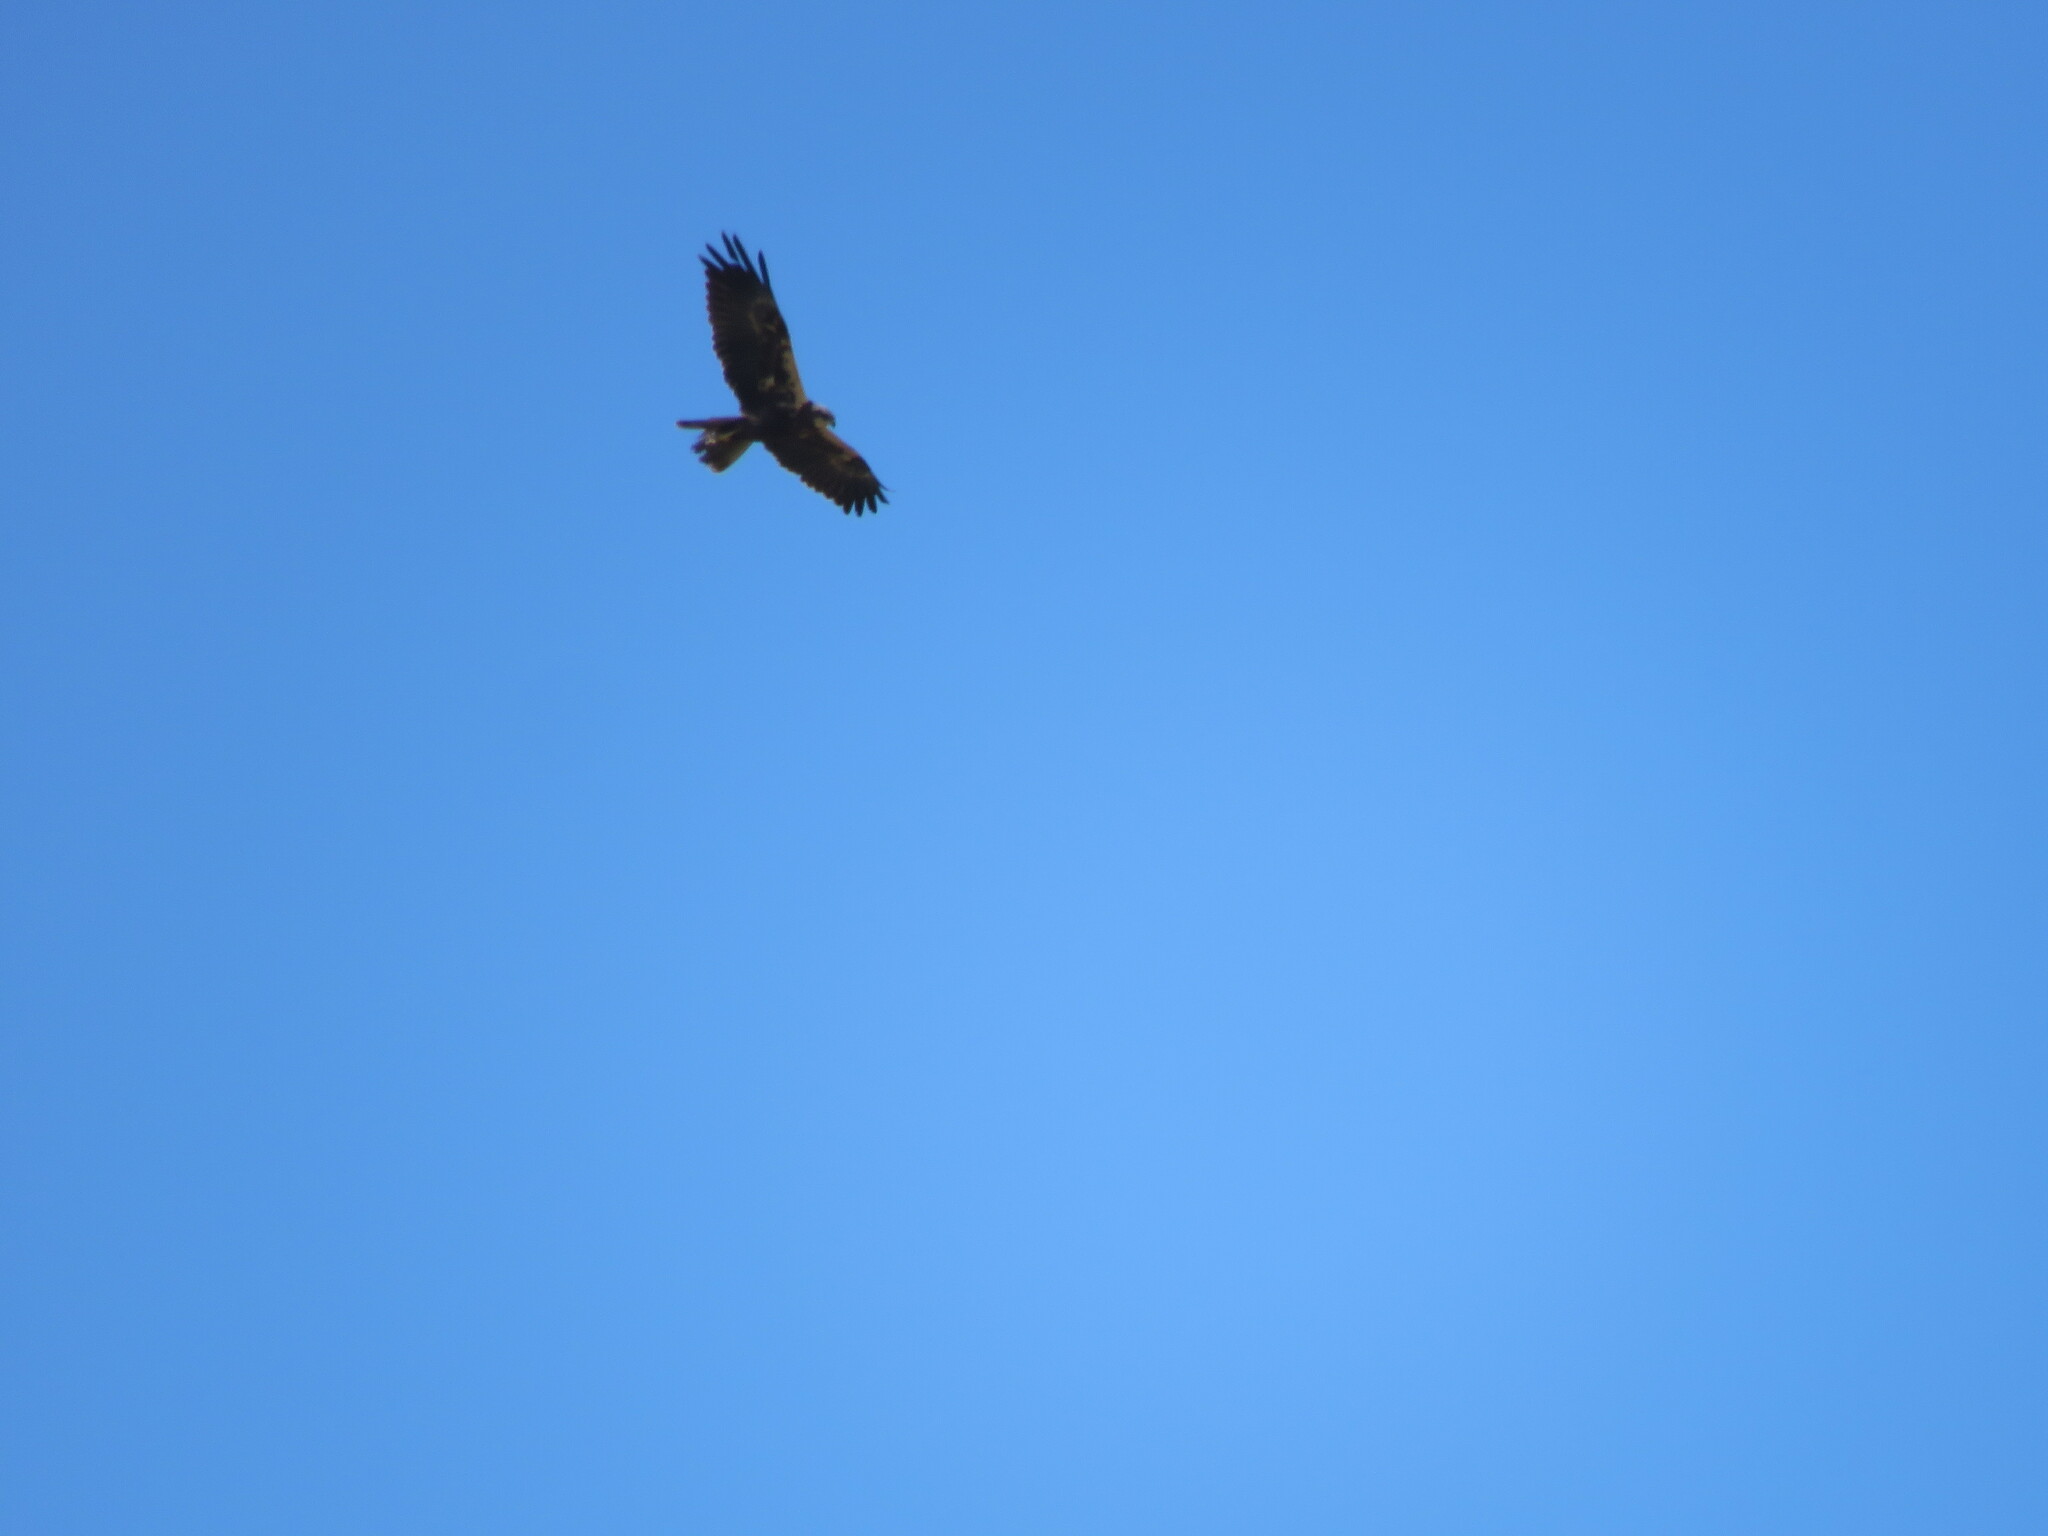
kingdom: Animalia
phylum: Chordata
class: Aves
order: Accipitriformes
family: Accipitridae
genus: Circus
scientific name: Circus aeruginosus
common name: Western marsh harrier
